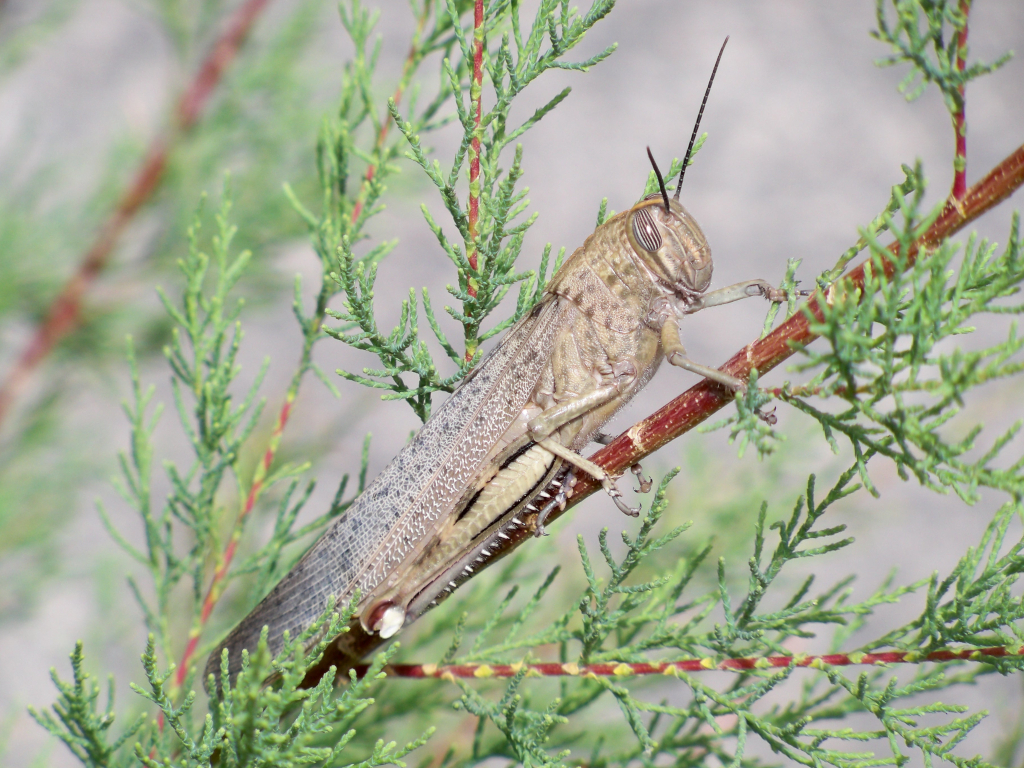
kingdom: Animalia
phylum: Arthropoda
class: Insecta
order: Orthoptera
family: Acrididae
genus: Anacridium
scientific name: Anacridium aegyptium
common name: Egyptian grasshopper
